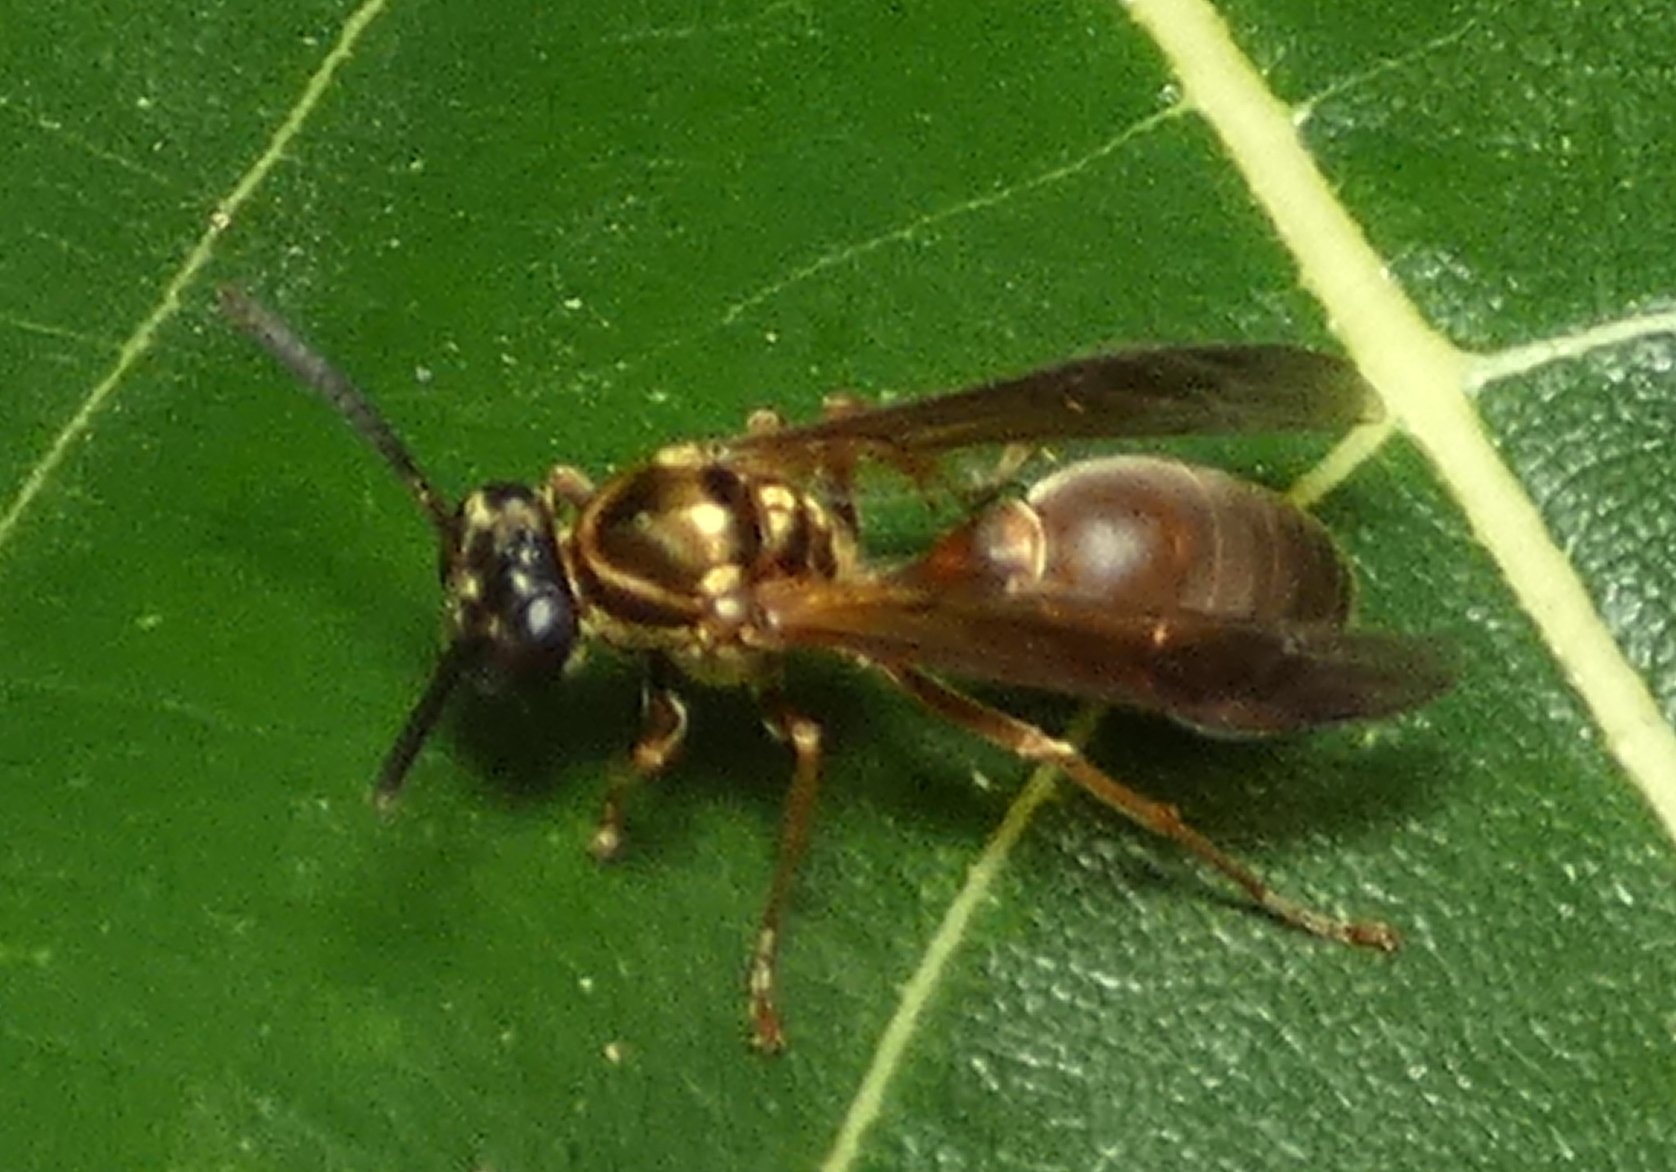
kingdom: Animalia
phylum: Arthropoda
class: Insecta
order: Hymenoptera
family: Eumenidae
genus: Polybia
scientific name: Polybia chrysothorax
